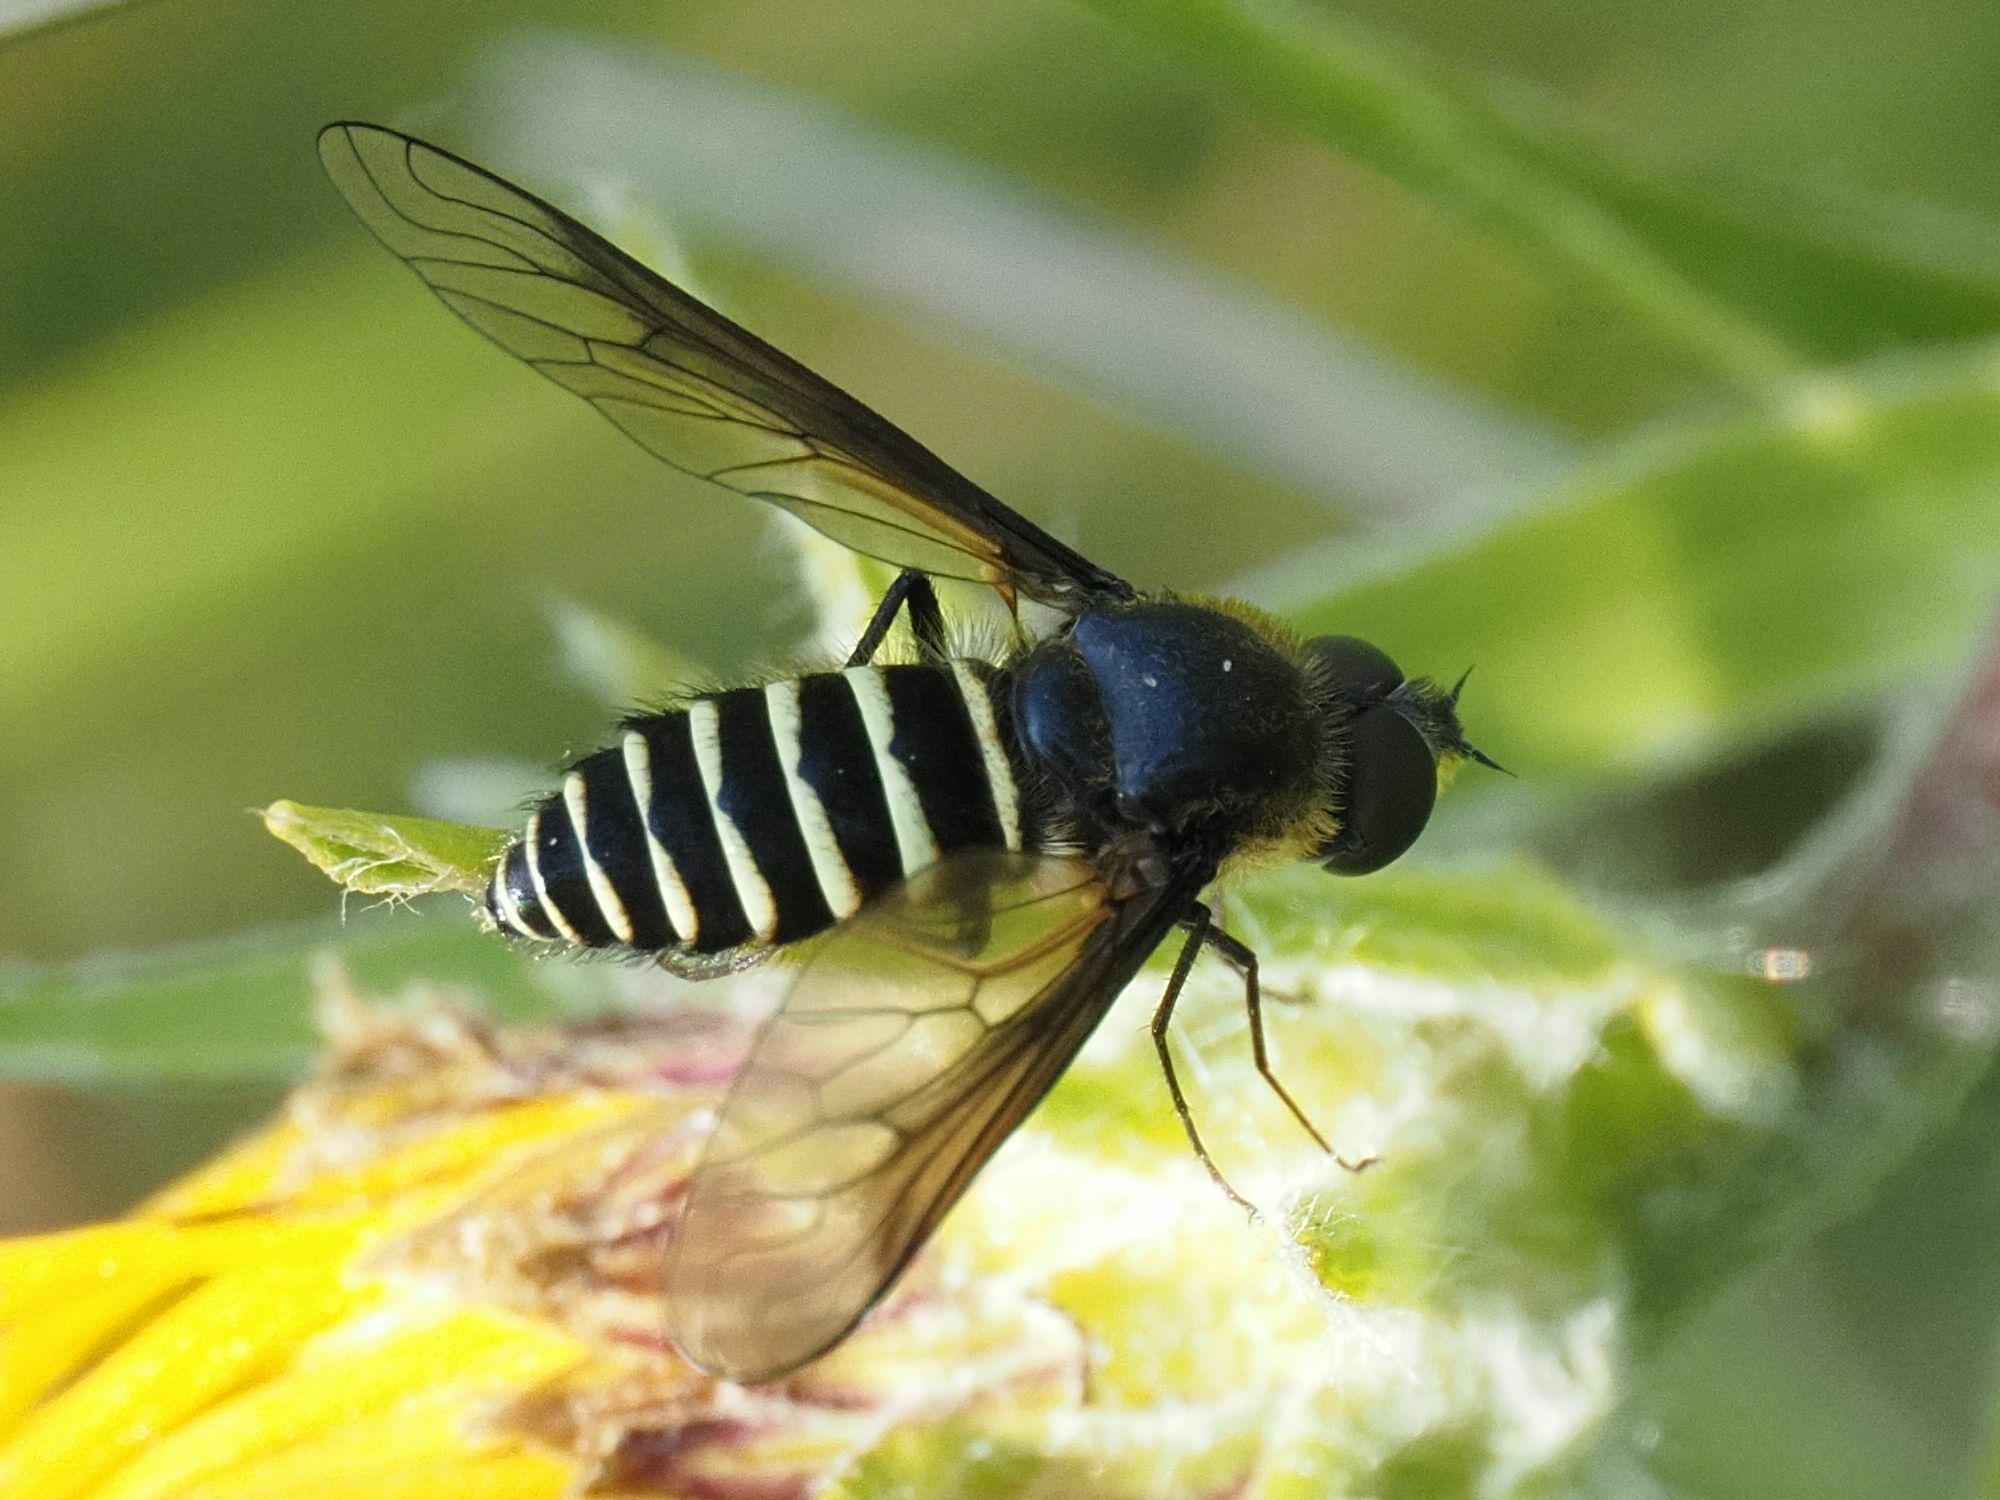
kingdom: Animalia
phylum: Arthropoda
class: Insecta
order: Diptera
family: Bombyliidae
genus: Lomatia
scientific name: Lomatia lateralis
